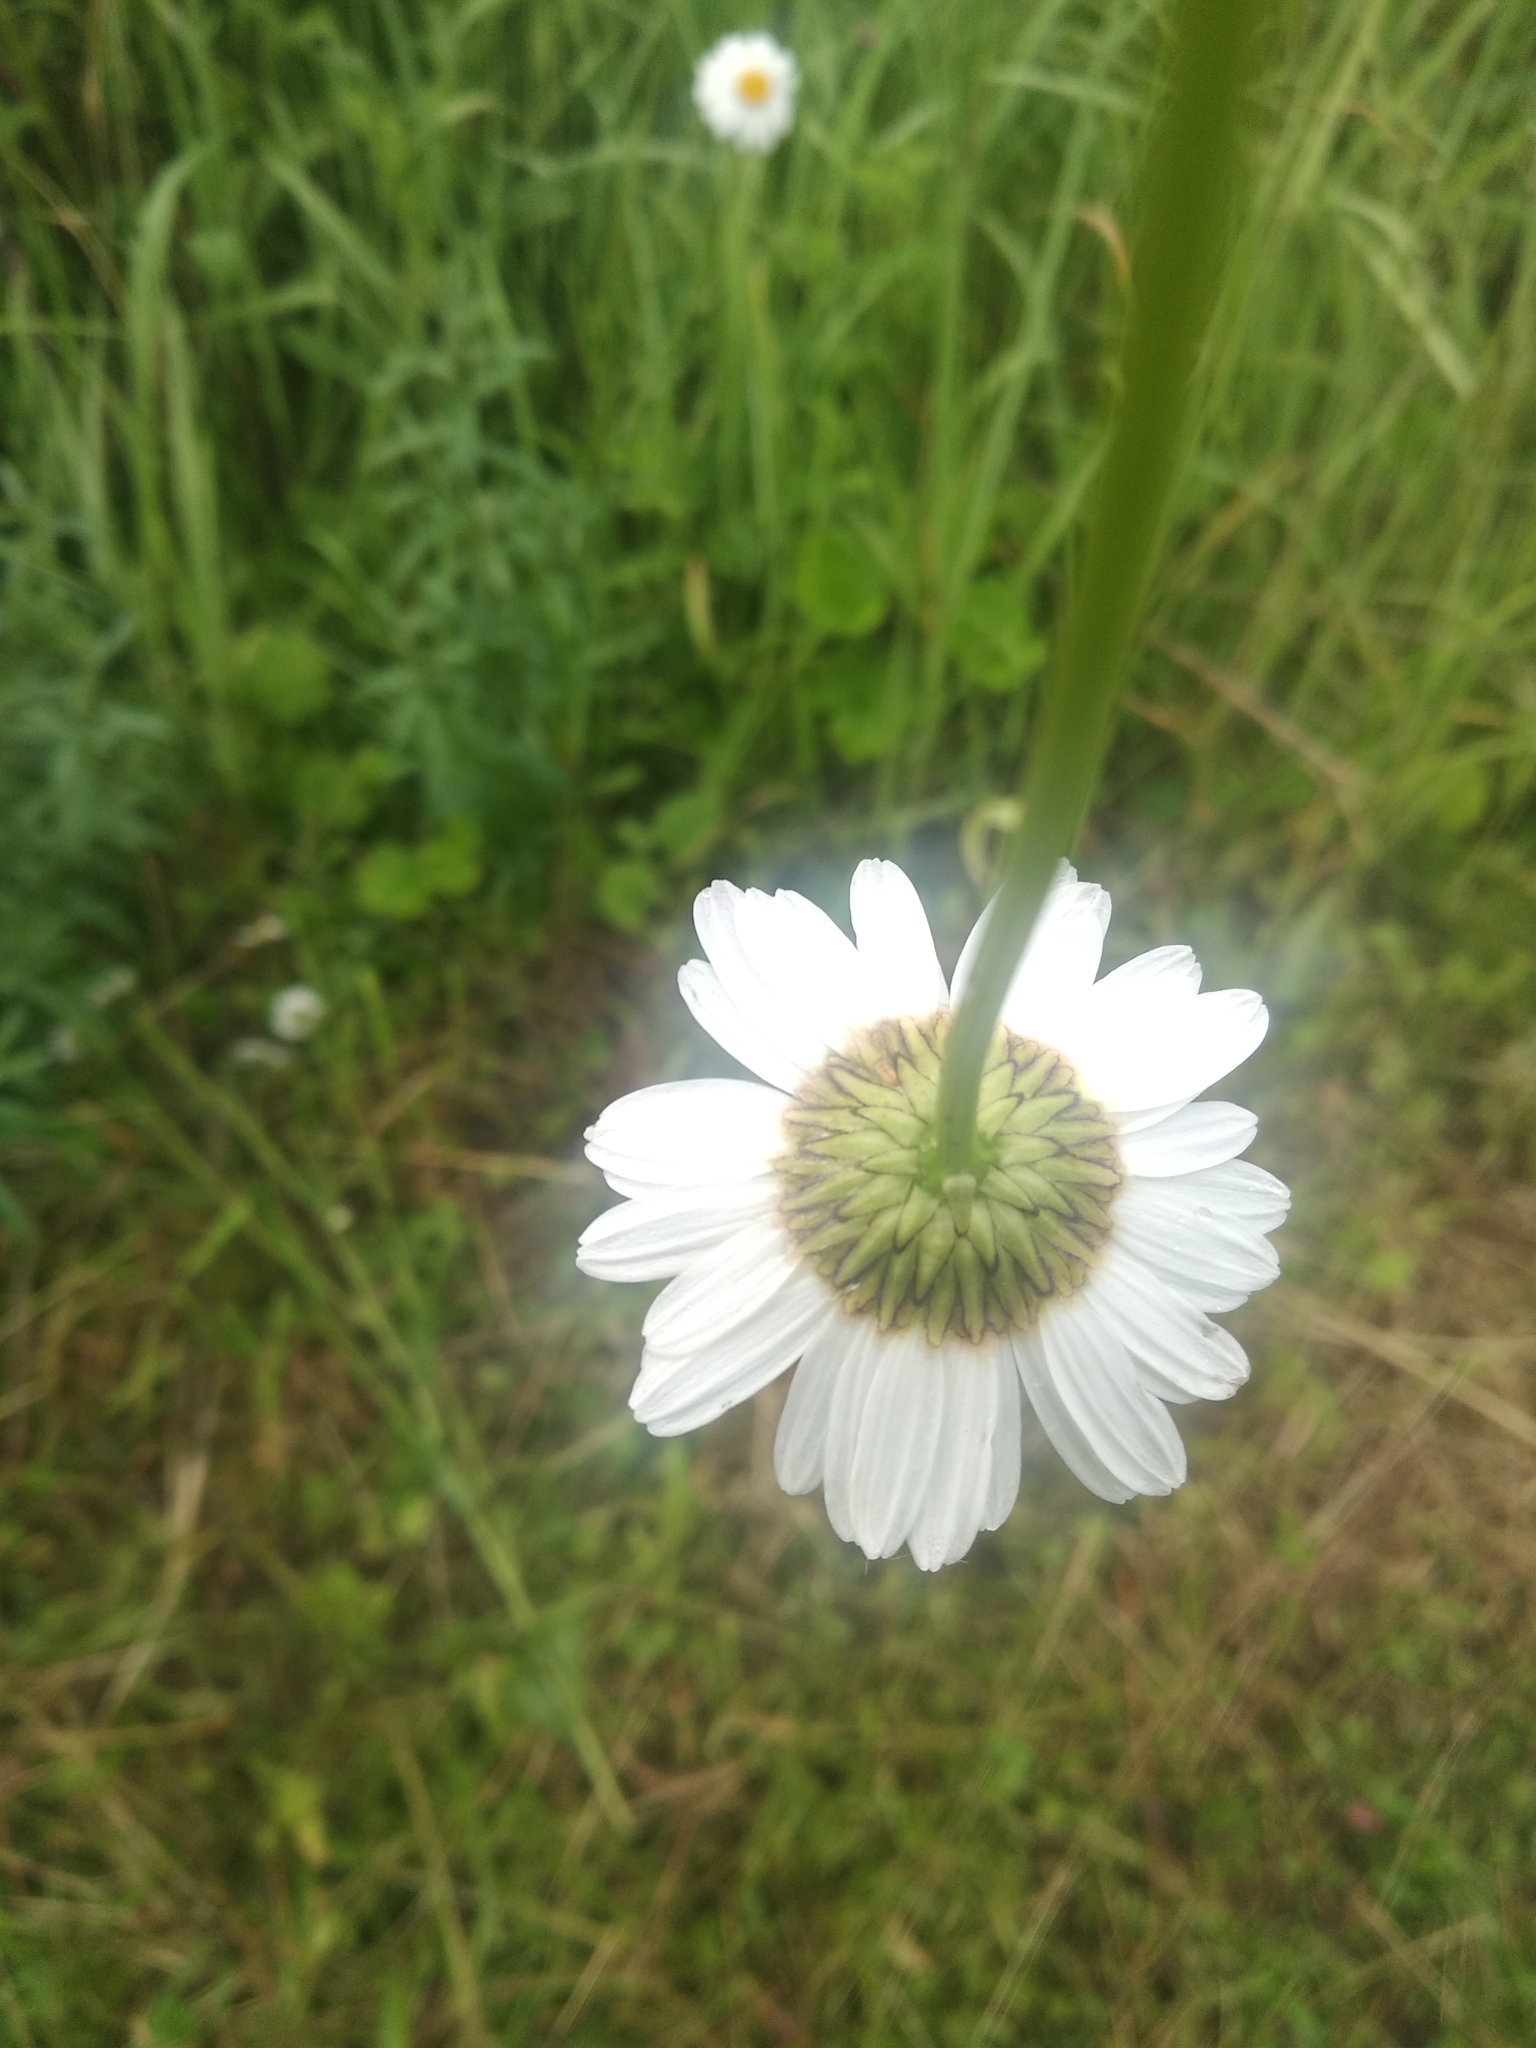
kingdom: Plantae
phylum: Tracheophyta
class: Magnoliopsida
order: Asterales
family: Asteraceae
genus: Leucanthemum
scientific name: Leucanthemum vulgare
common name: Oxeye daisy
